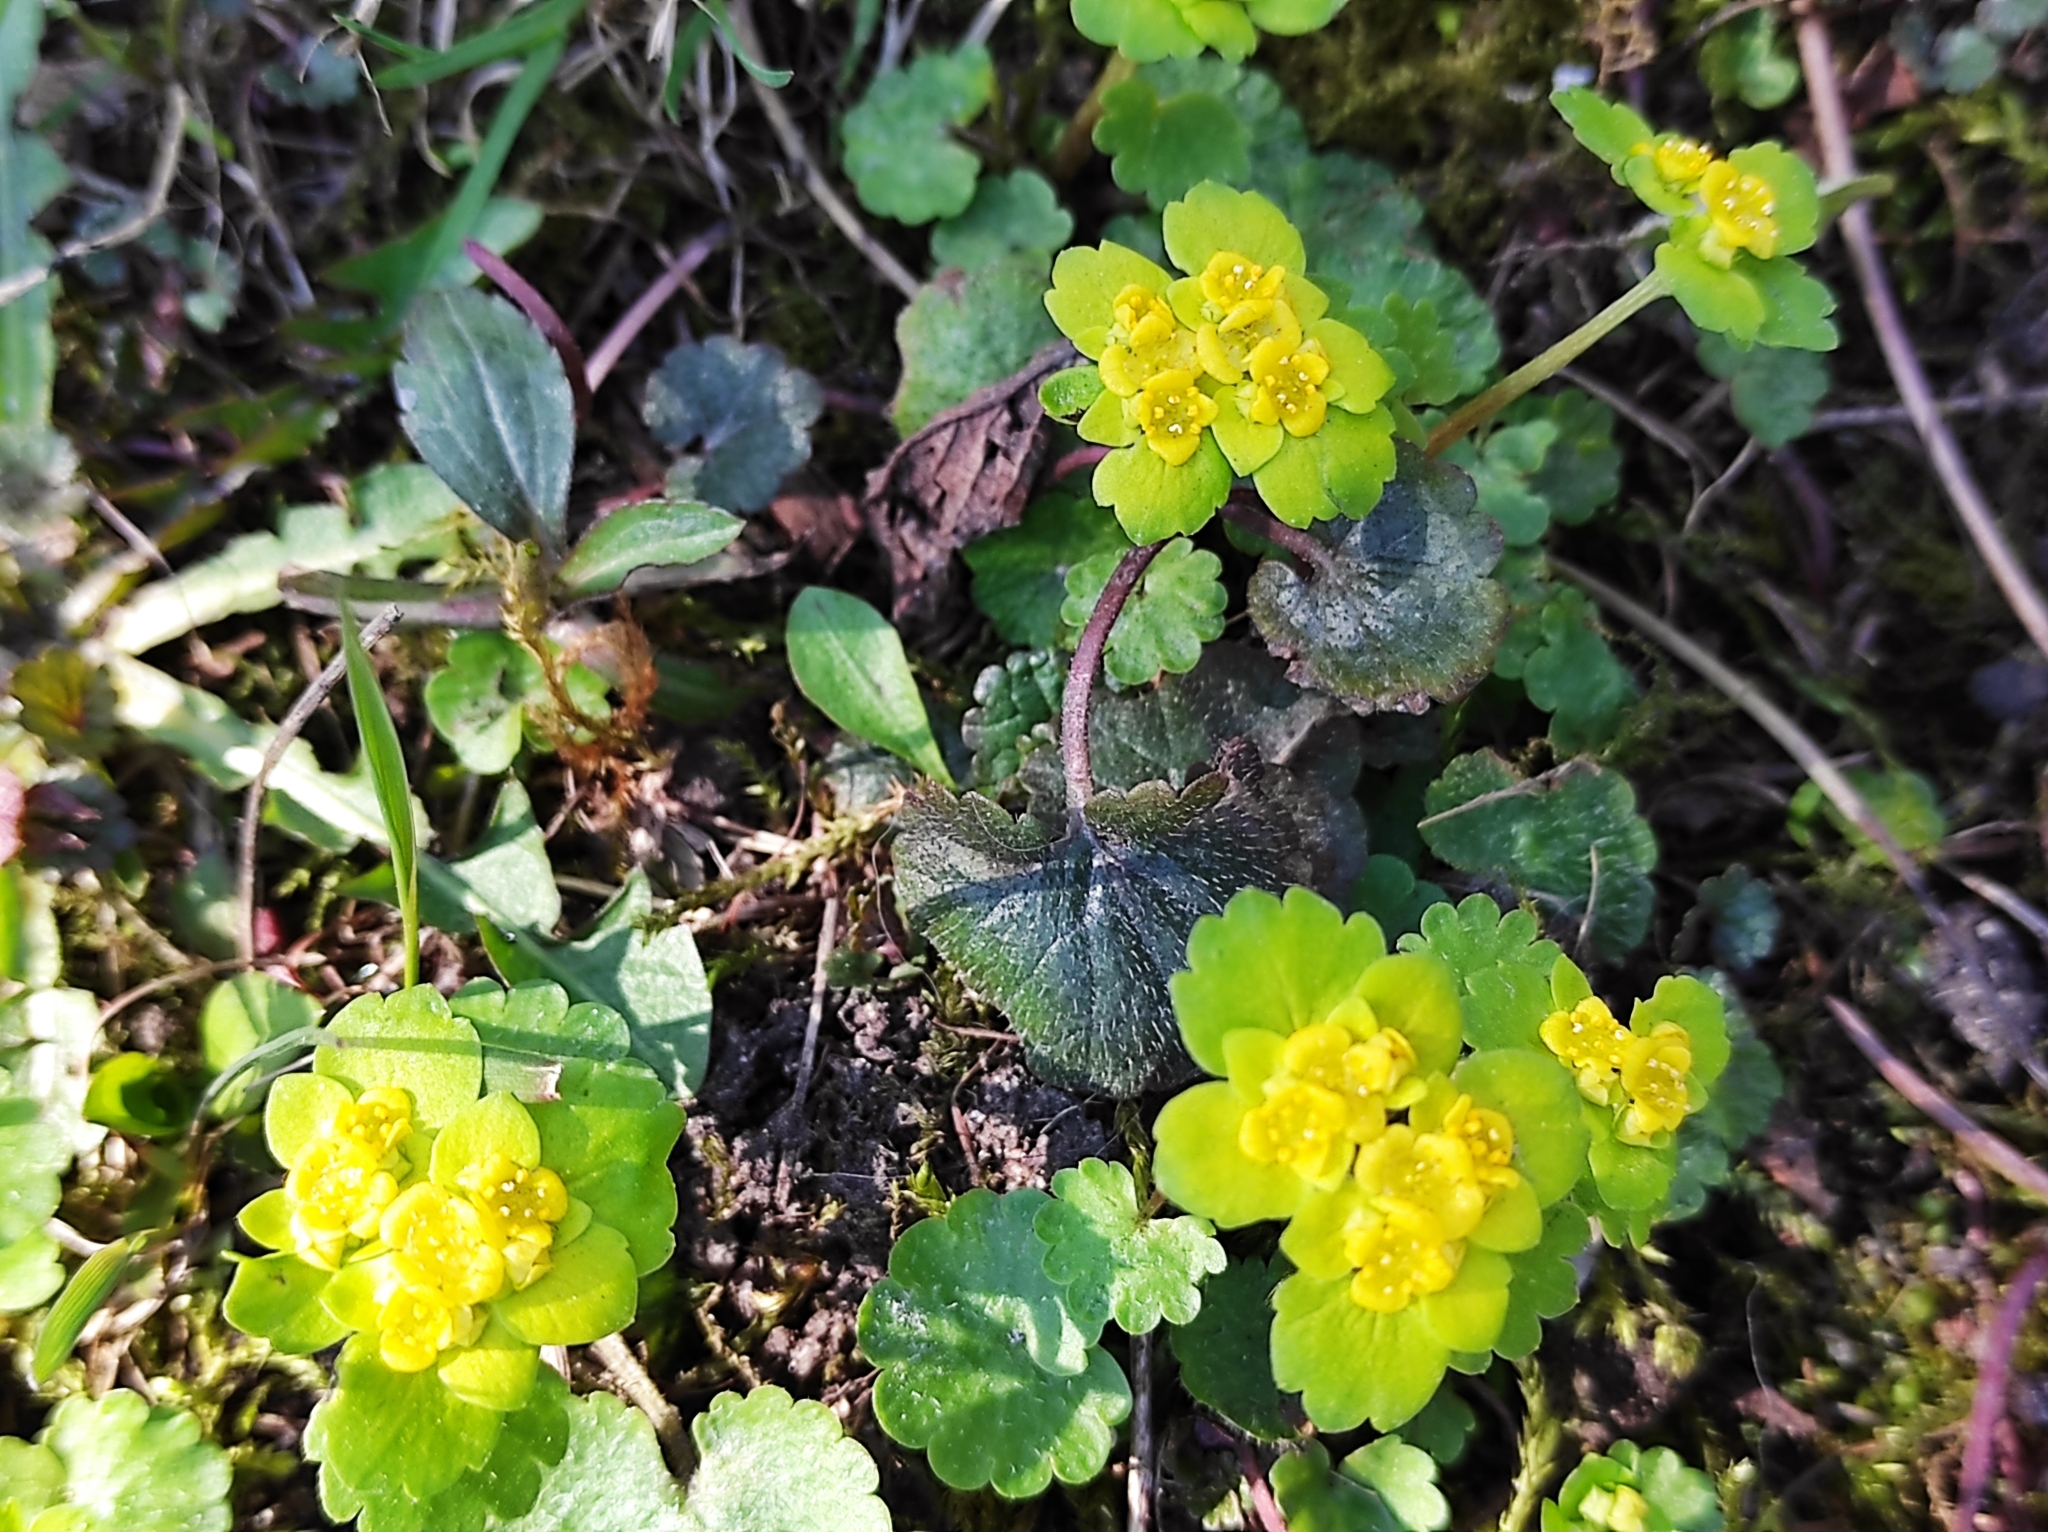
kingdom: Plantae
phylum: Tracheophyta
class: Magnoliopsida
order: Saxifragales
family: Saxifragaceae
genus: Chrysosplenium
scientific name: Chrysosplenium alternifolium
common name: Alternate-leaved golden-saxifrage
